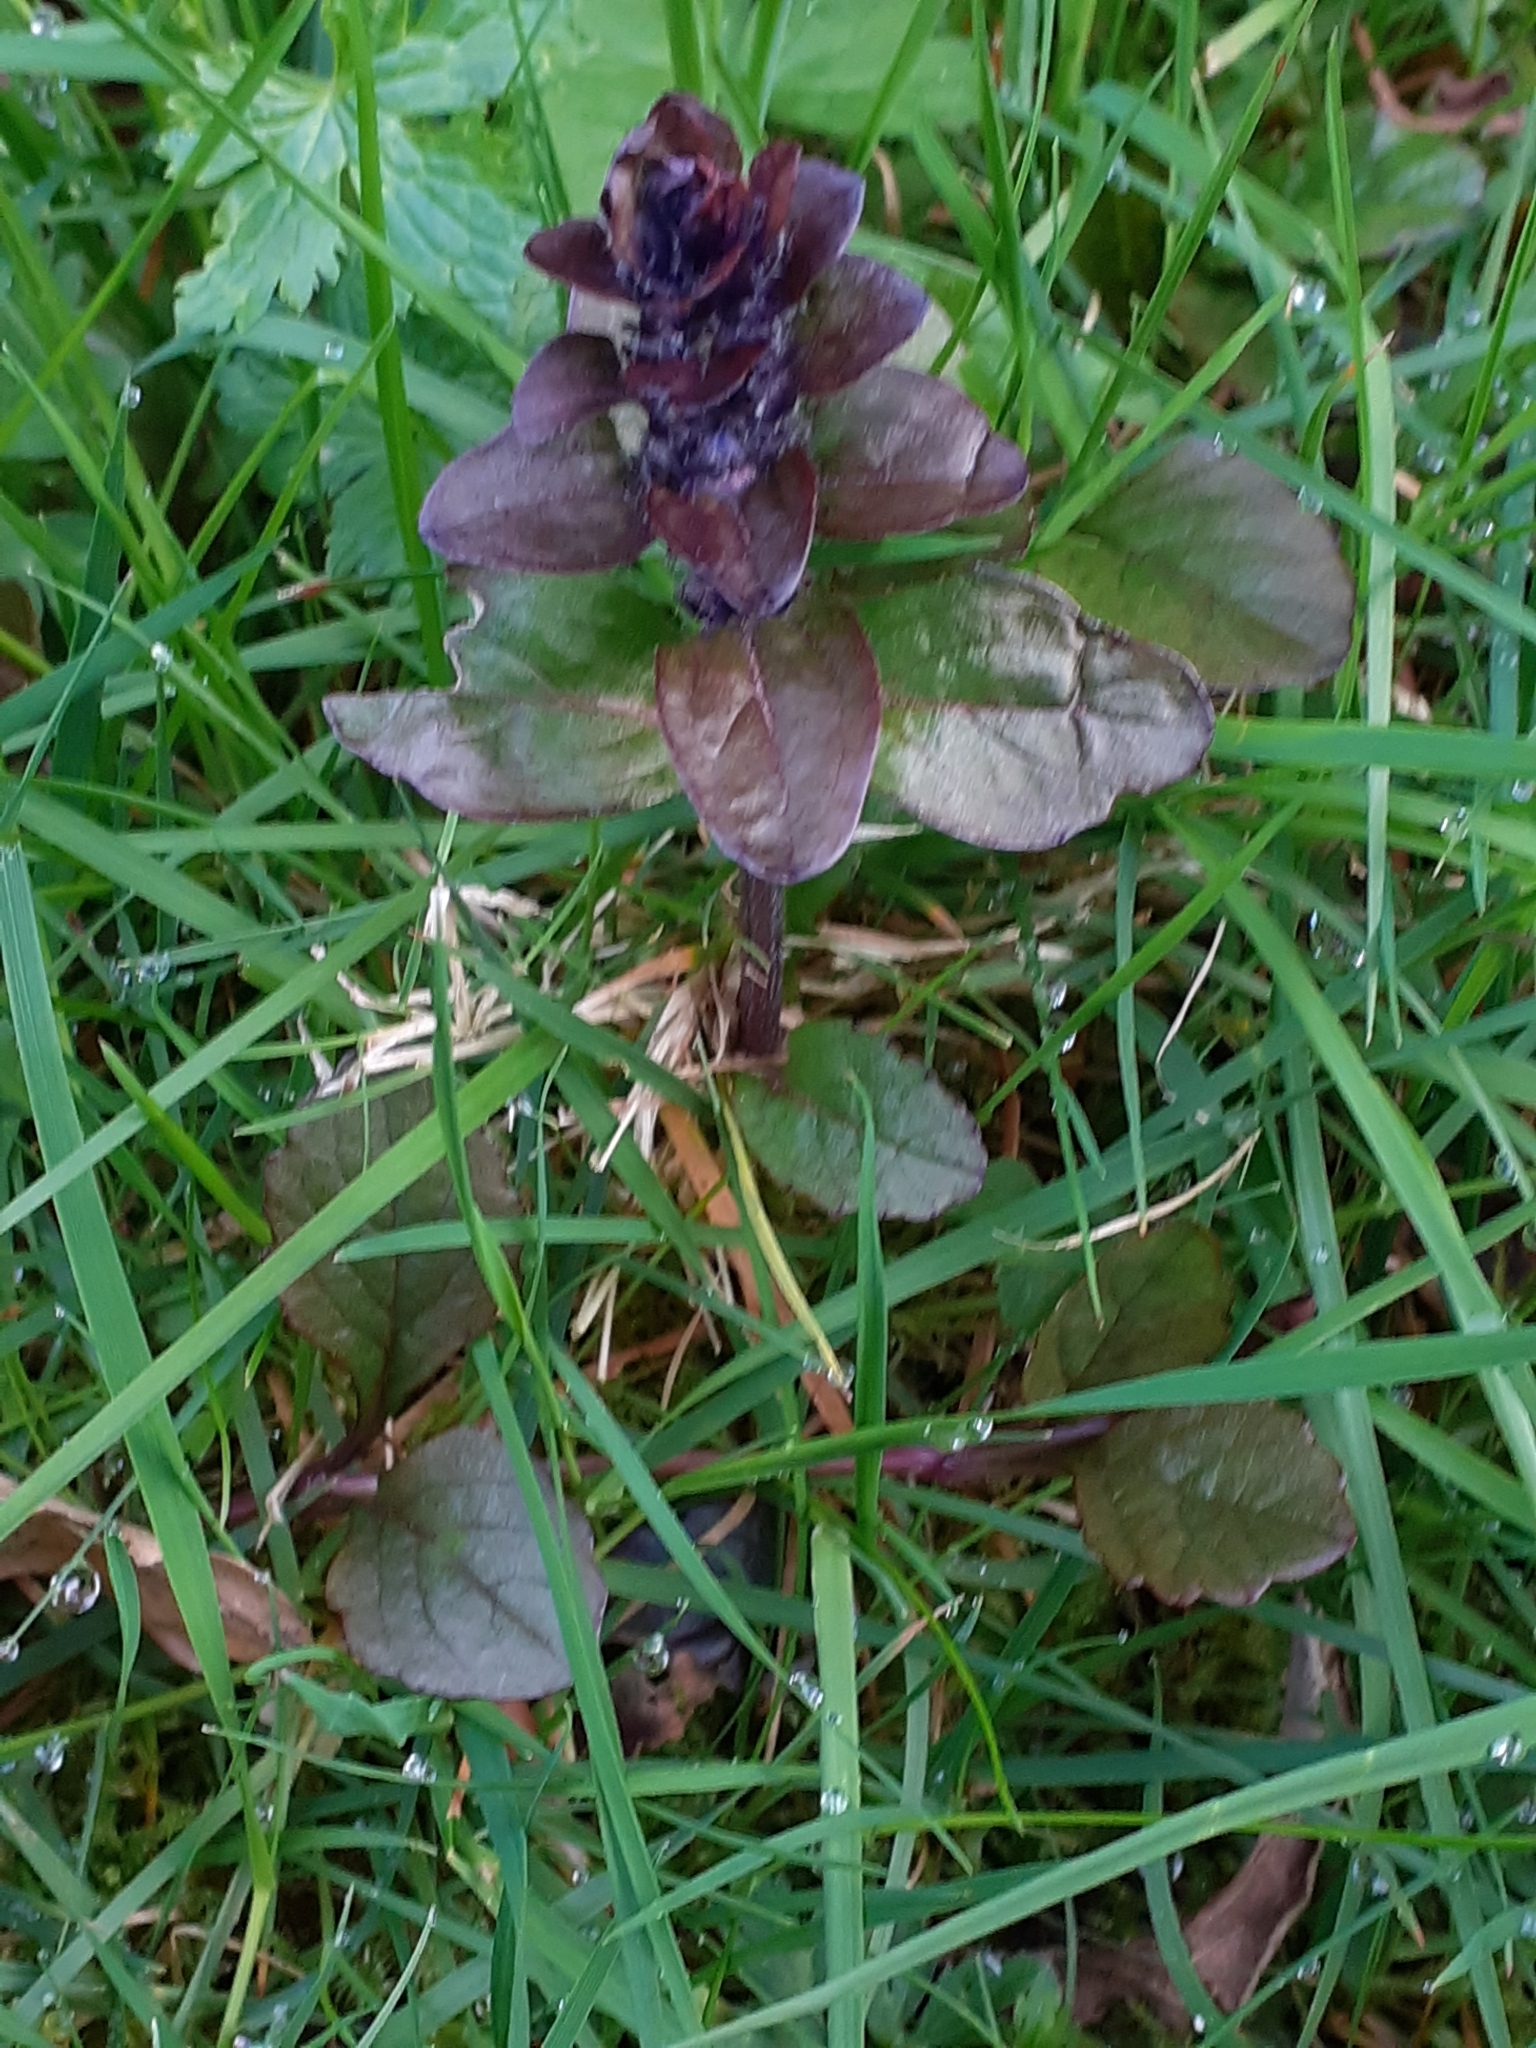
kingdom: Plantae
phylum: Tracheophyta
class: Magnoliopsida
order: Lamiales
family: Lamiaceae
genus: Ajuga
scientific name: Ajuga reptans
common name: Bugle
